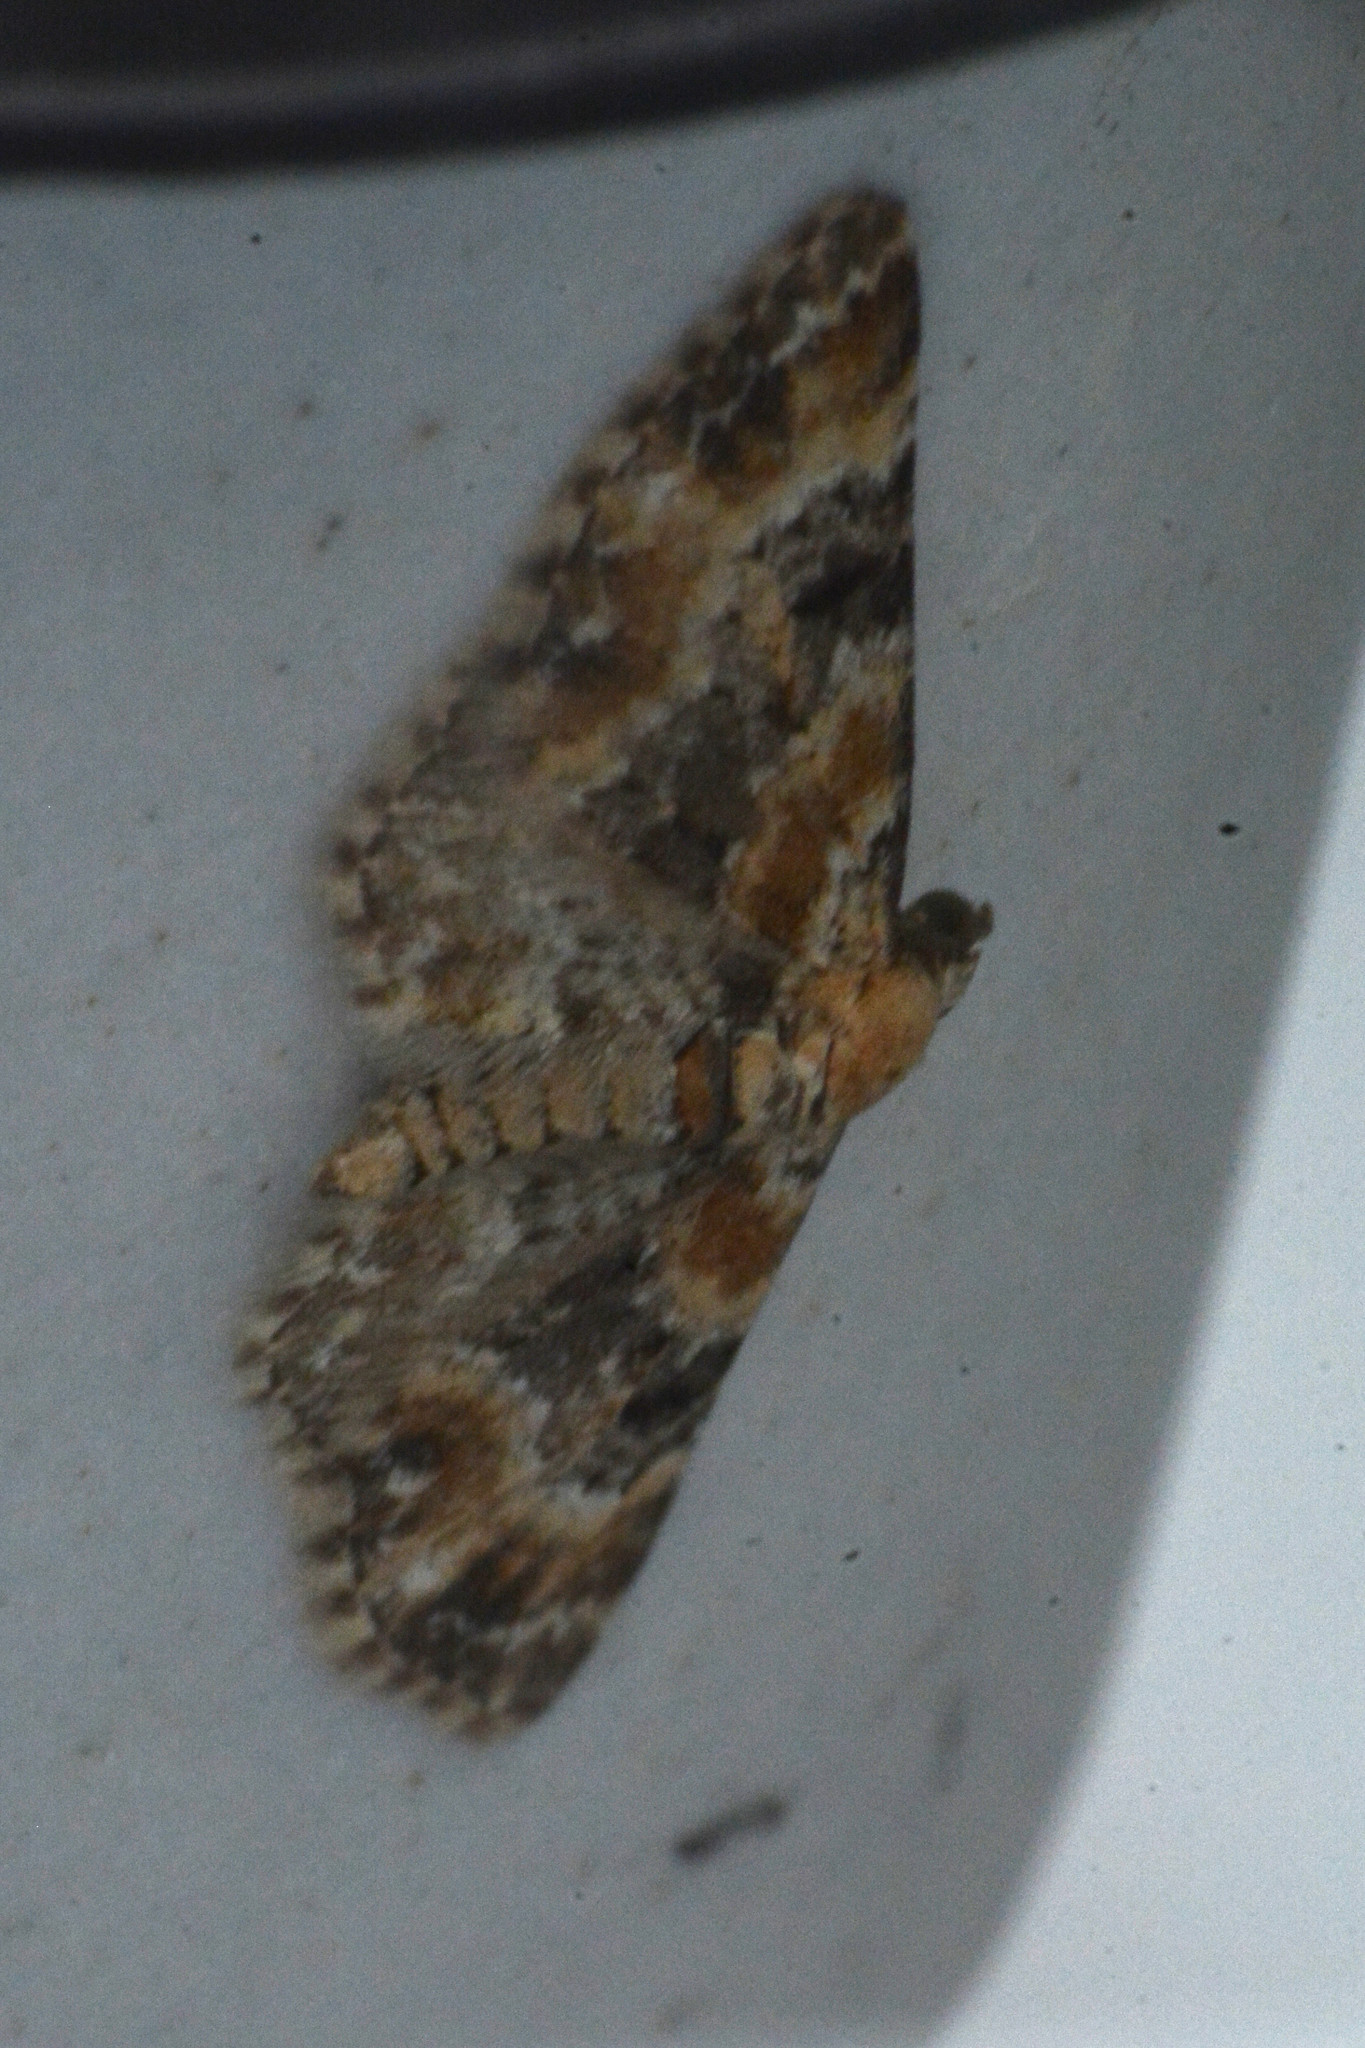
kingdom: Animalia
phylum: Arthropoda
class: Insecta
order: Lepidoptera
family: Geometridae
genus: Eupithecia
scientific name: Eupithecia pulchellata
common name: Foxglove pug
